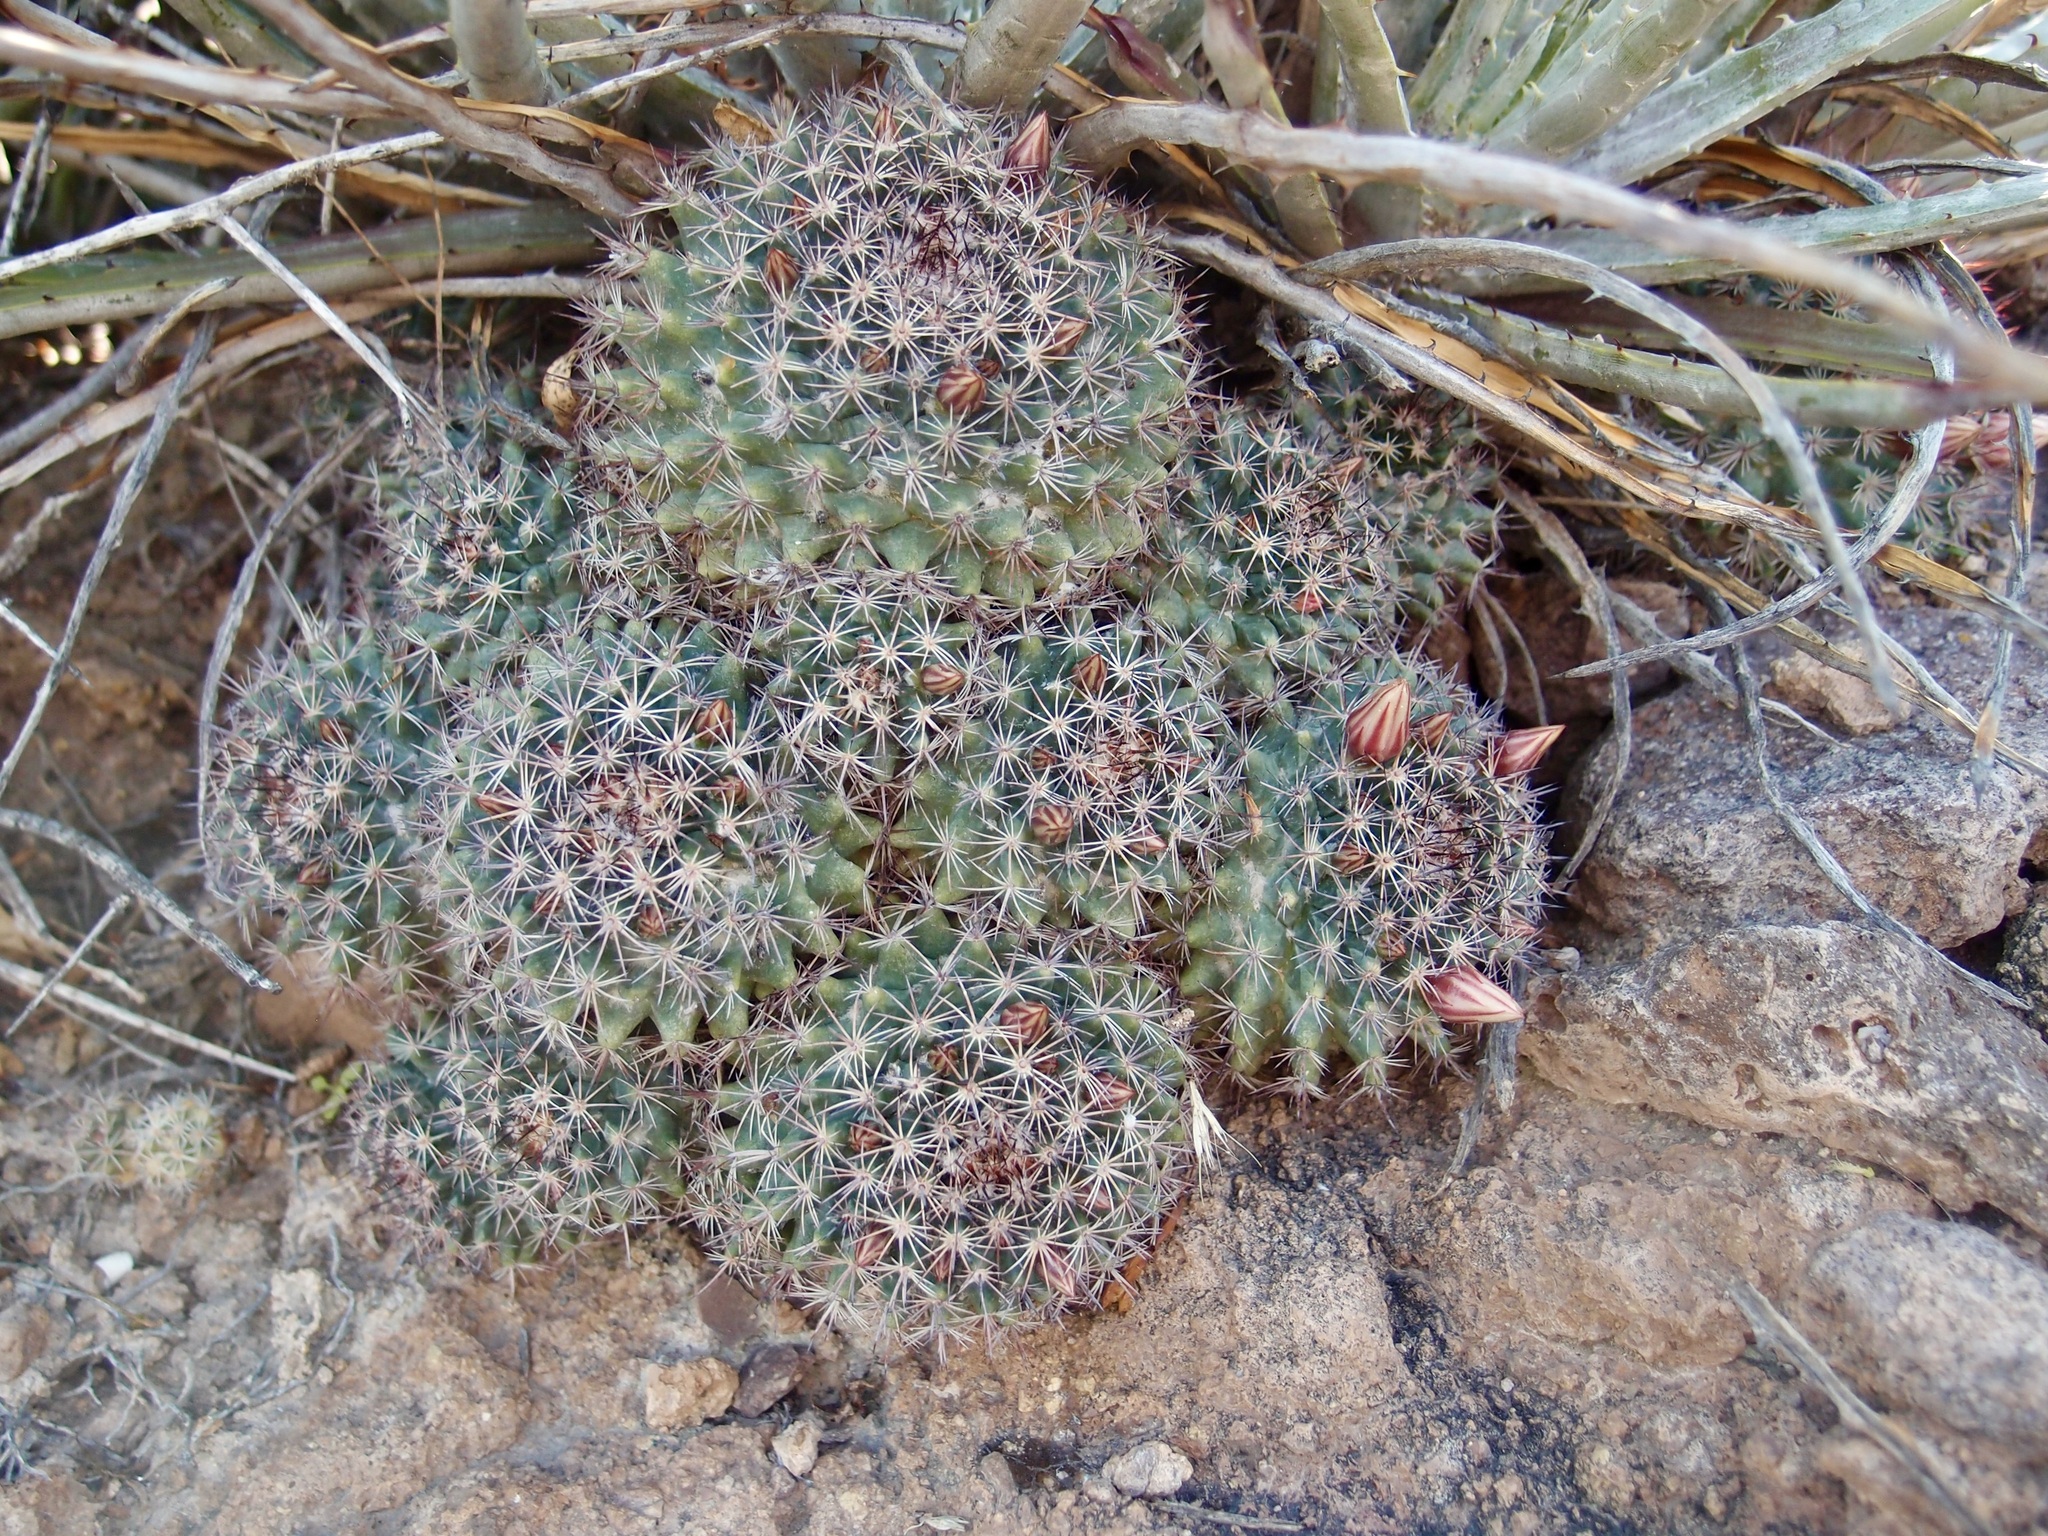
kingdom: Plantae
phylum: Tracheophyta
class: Magnoliopsida
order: Caryophyllales
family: Cactaceae
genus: Mammillaria
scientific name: Mammillaria johnstonii
